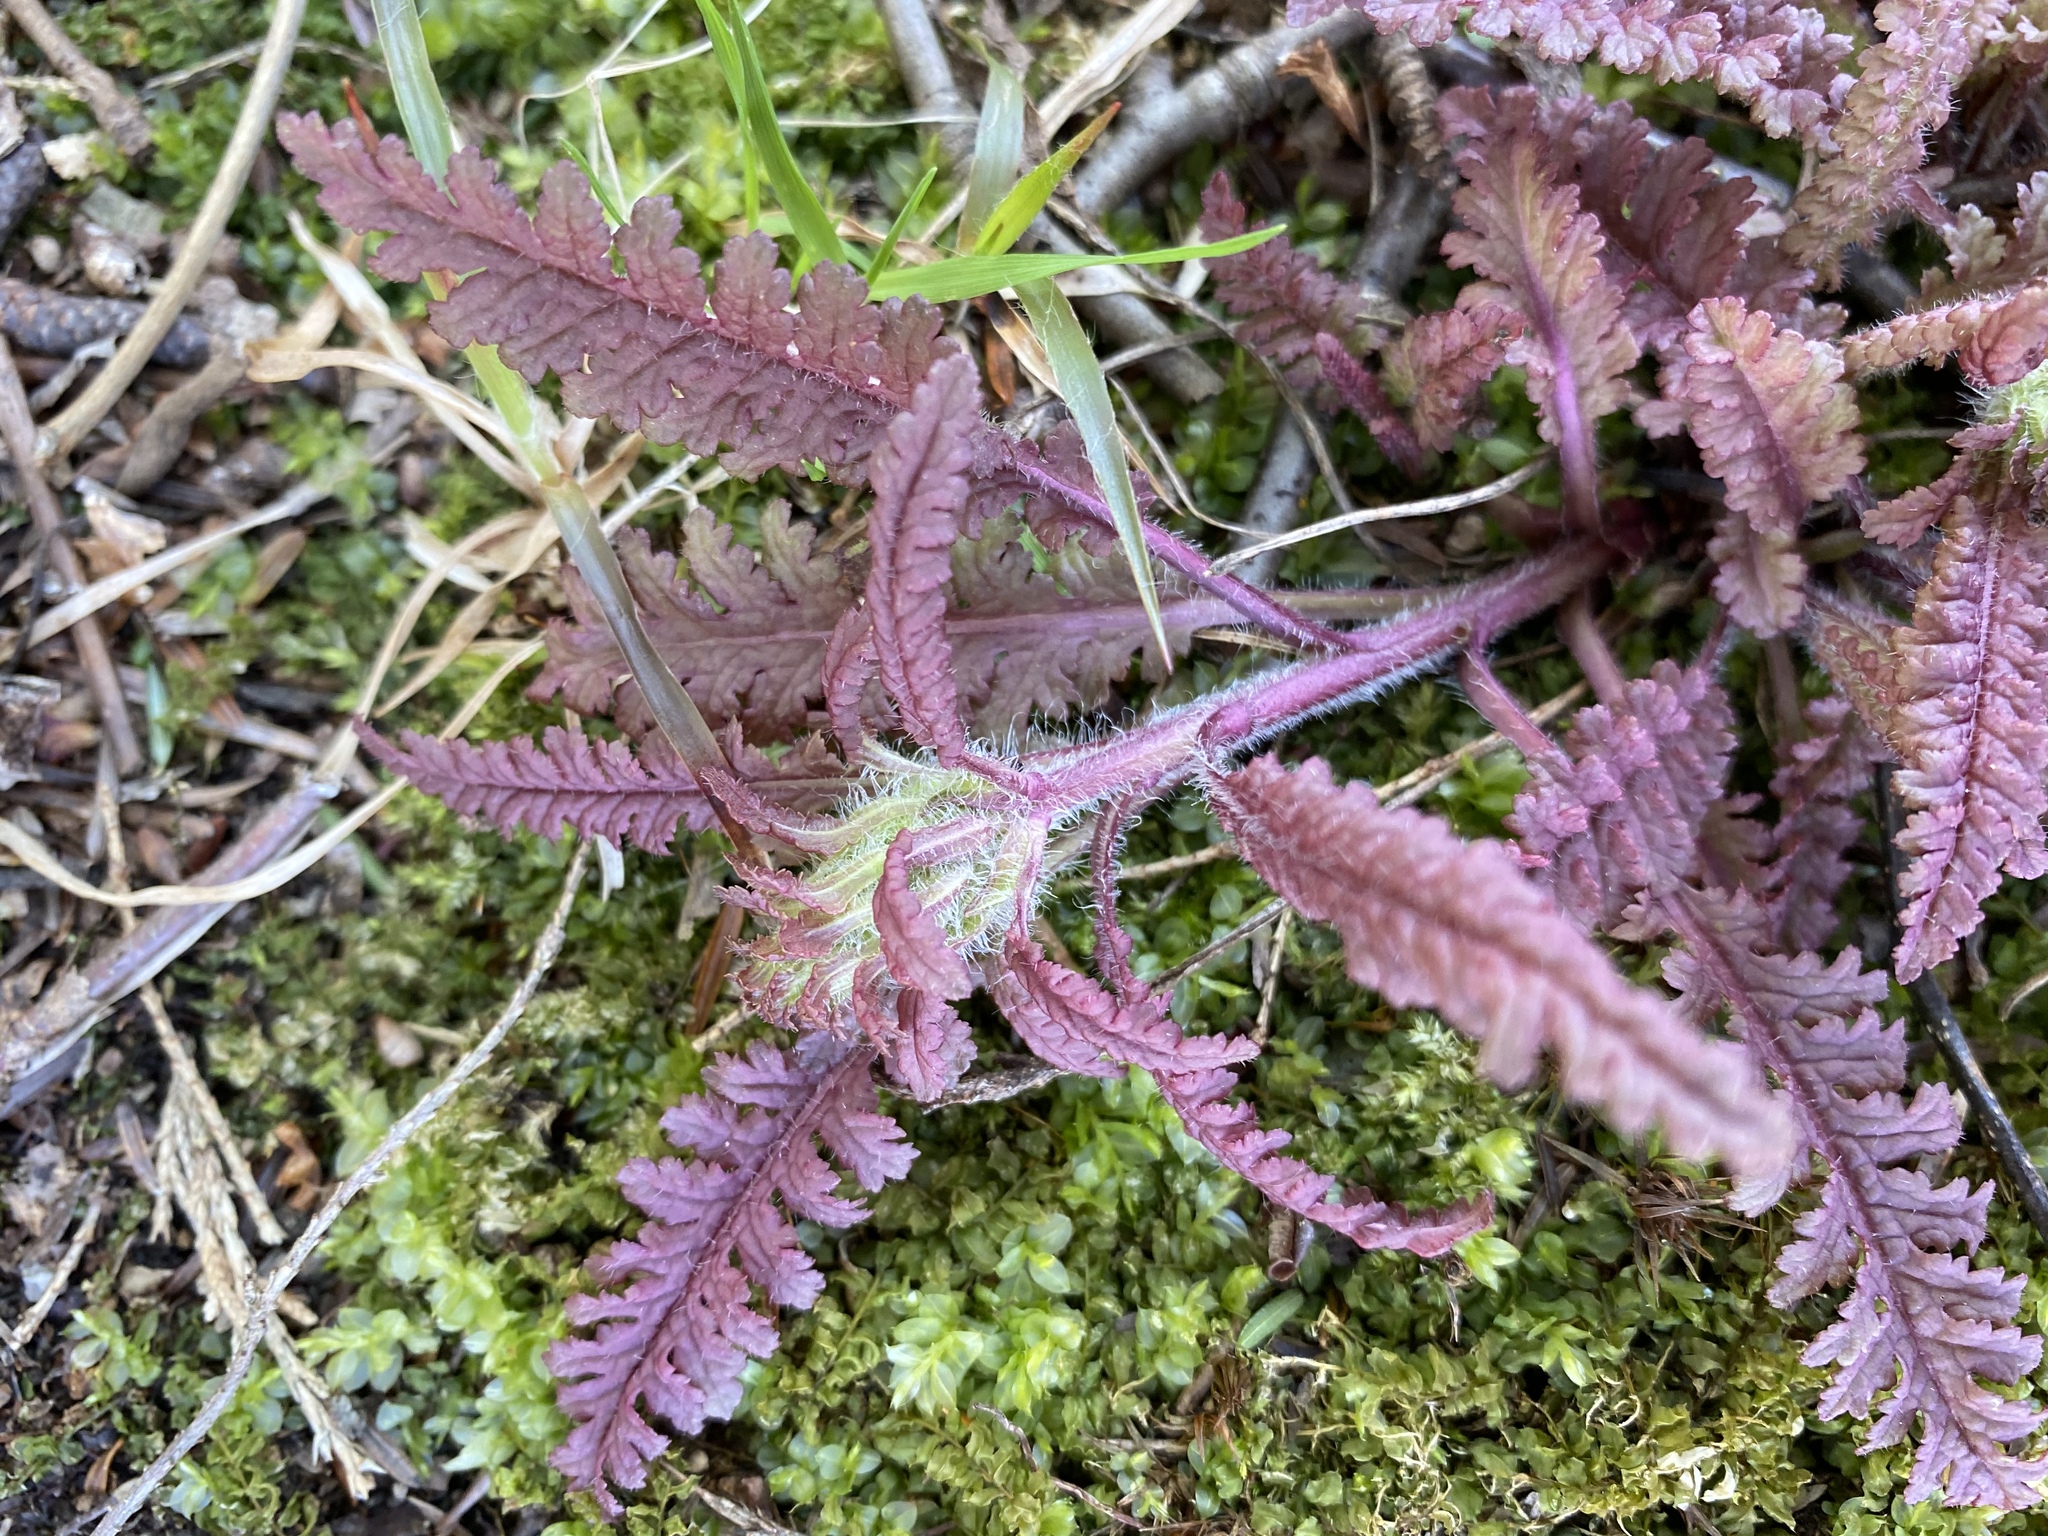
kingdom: Plantae
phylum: Tracheophyta
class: Magnoliopsida
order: Lamiales
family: Orobanchaceae
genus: Pedicularis
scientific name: Pedicularis canadensis
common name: Early lousewort
